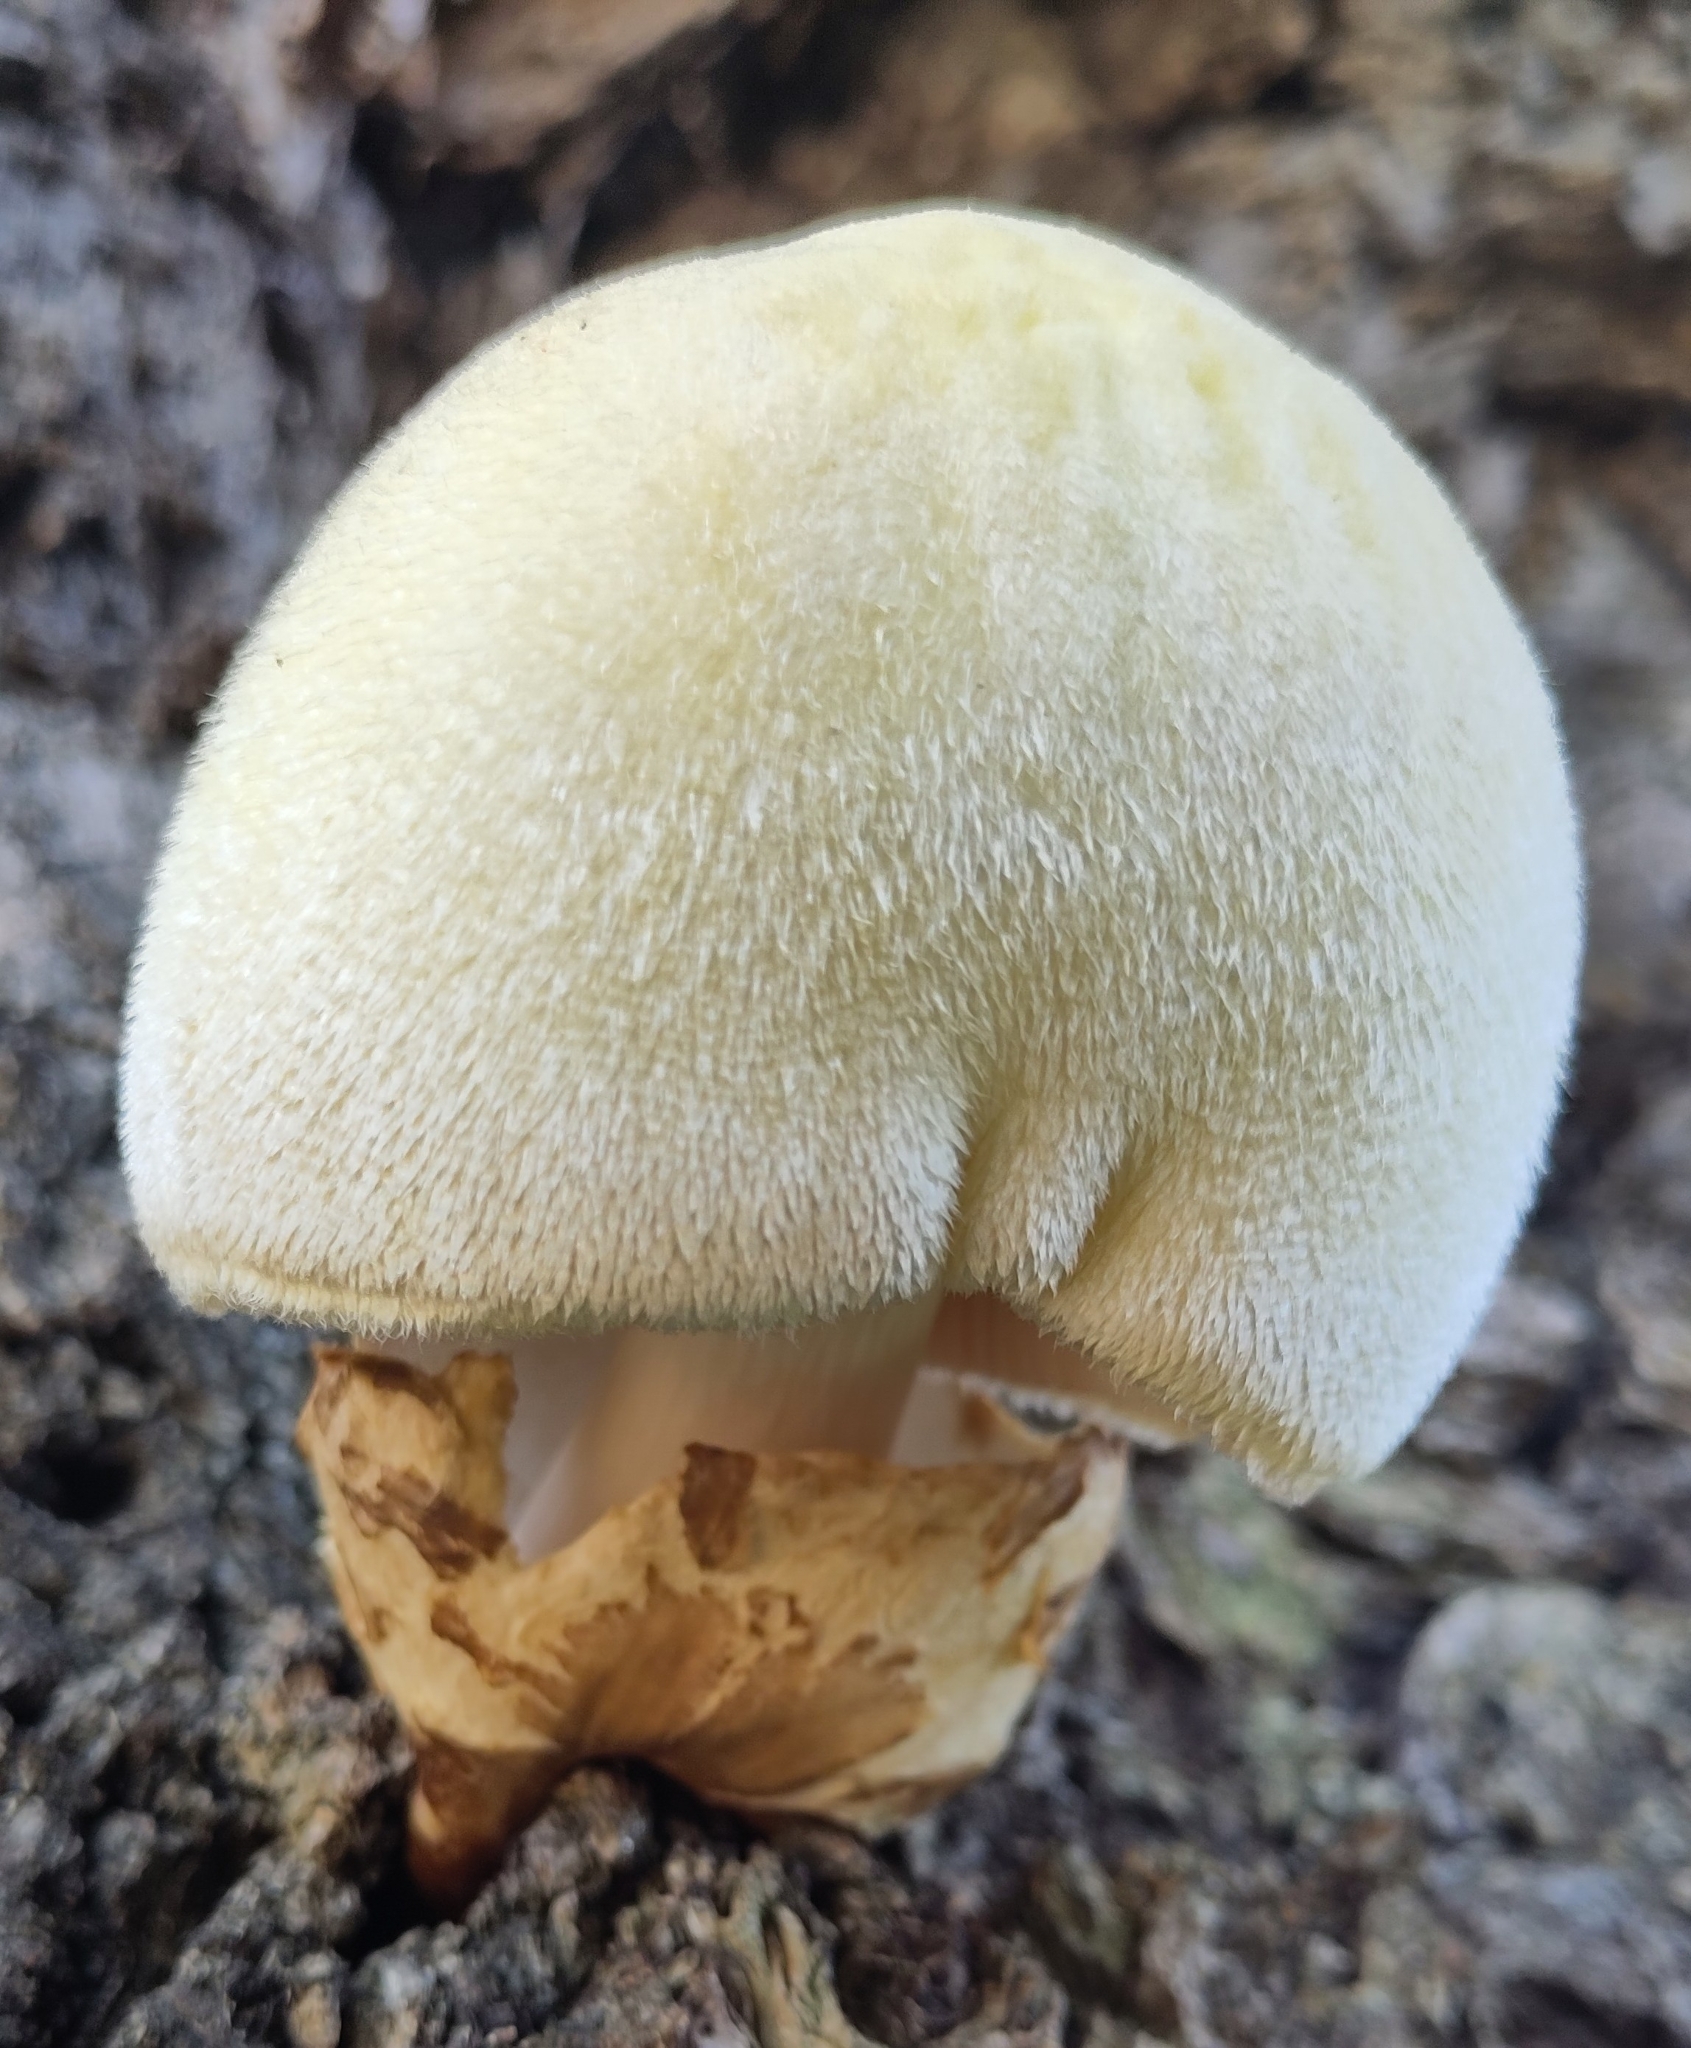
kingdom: Fungi
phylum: Basidiomycota
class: Agaricomycetes
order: Agaricales
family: Pluteaceae
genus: Volvariella
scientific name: Volvariella bombycina
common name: Silky rosegill
